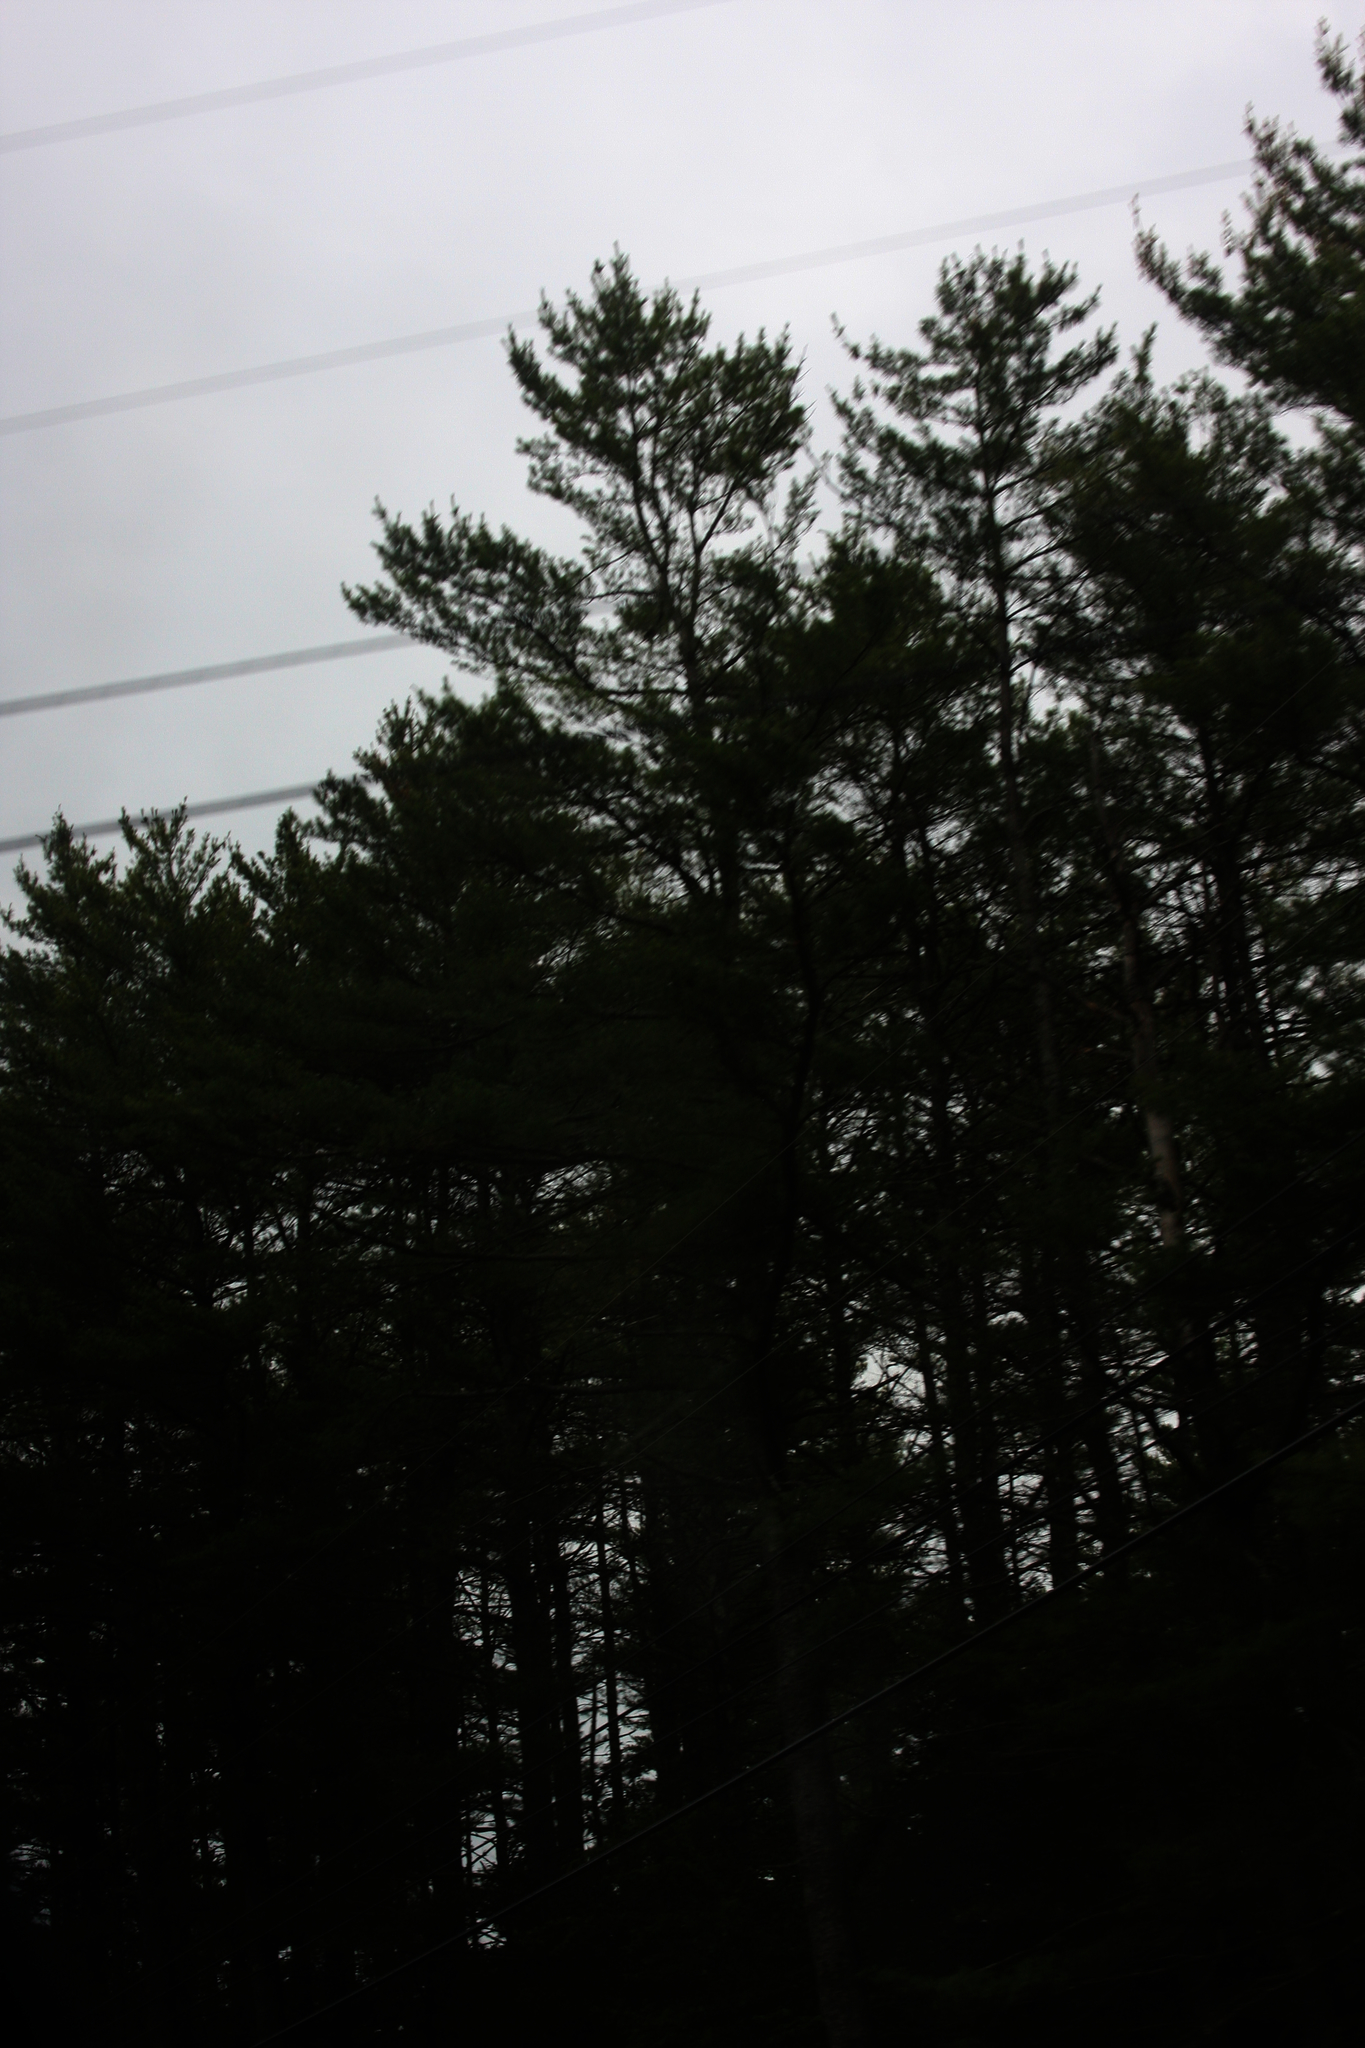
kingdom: Plantae
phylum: Tracheophyta
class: Pinopsida
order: Pinales
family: Pinaceae
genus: Pinus
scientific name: Pinus strobus
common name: Weymouth pine
